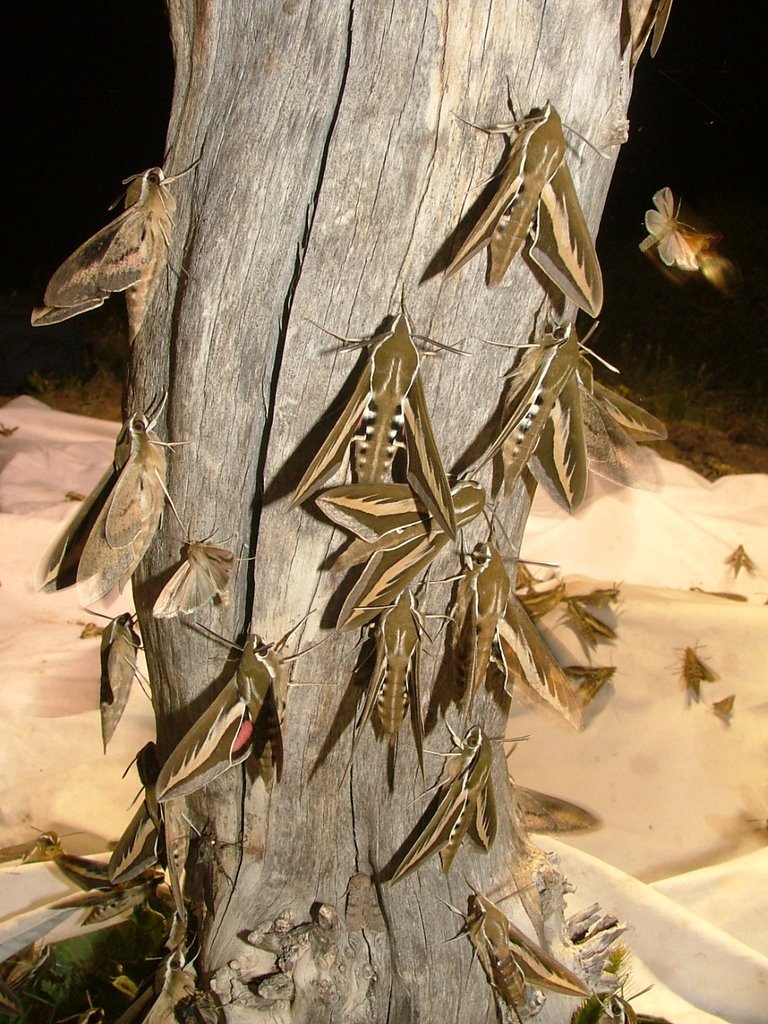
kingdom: Animalia
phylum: Arthropoda
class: Insecta
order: Lepidoptera
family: Sphingidae
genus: Hyles
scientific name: Hyles euphorbiarum
